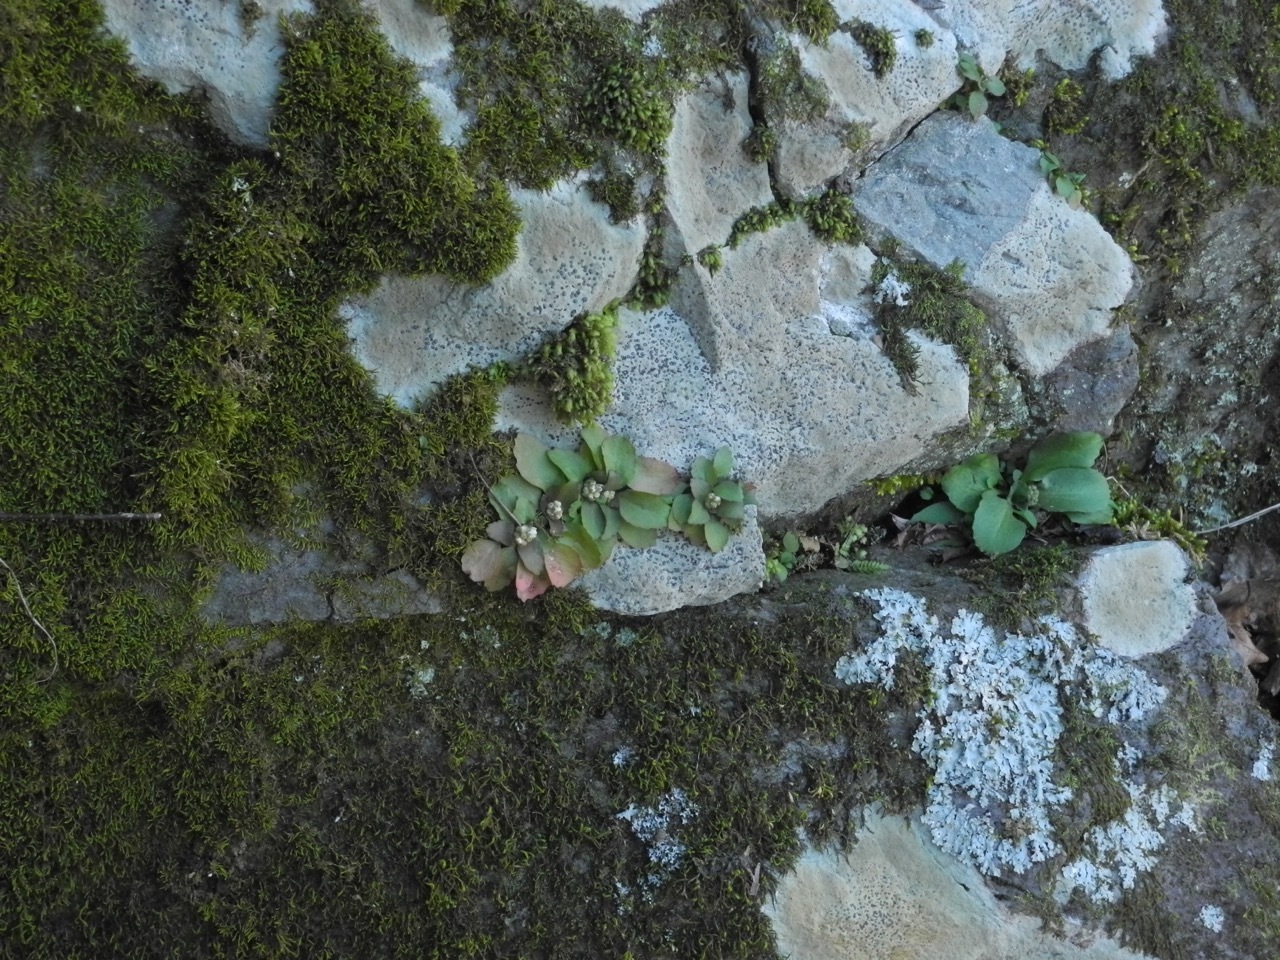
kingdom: Plantae
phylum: Tracheophyta
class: Magnoliopsida
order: Saxifragales
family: Saxifragaceae
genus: Micranthes
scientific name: Micranthes virginiensis
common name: Early saxifrage
